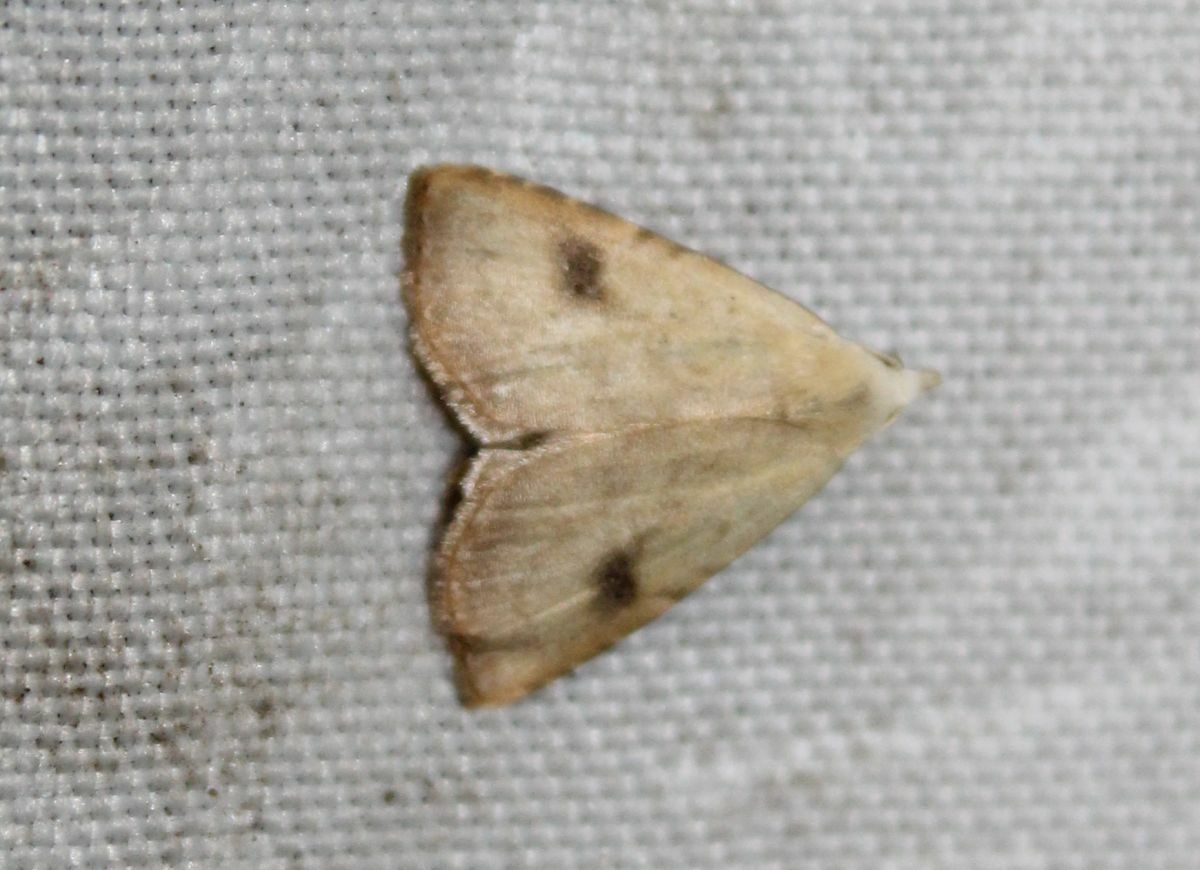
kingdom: Animalia
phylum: Arthropoda
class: Insecta
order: Lepidoptera
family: Erebidae
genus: Rivula
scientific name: Rivula sericealis
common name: Straw dot
